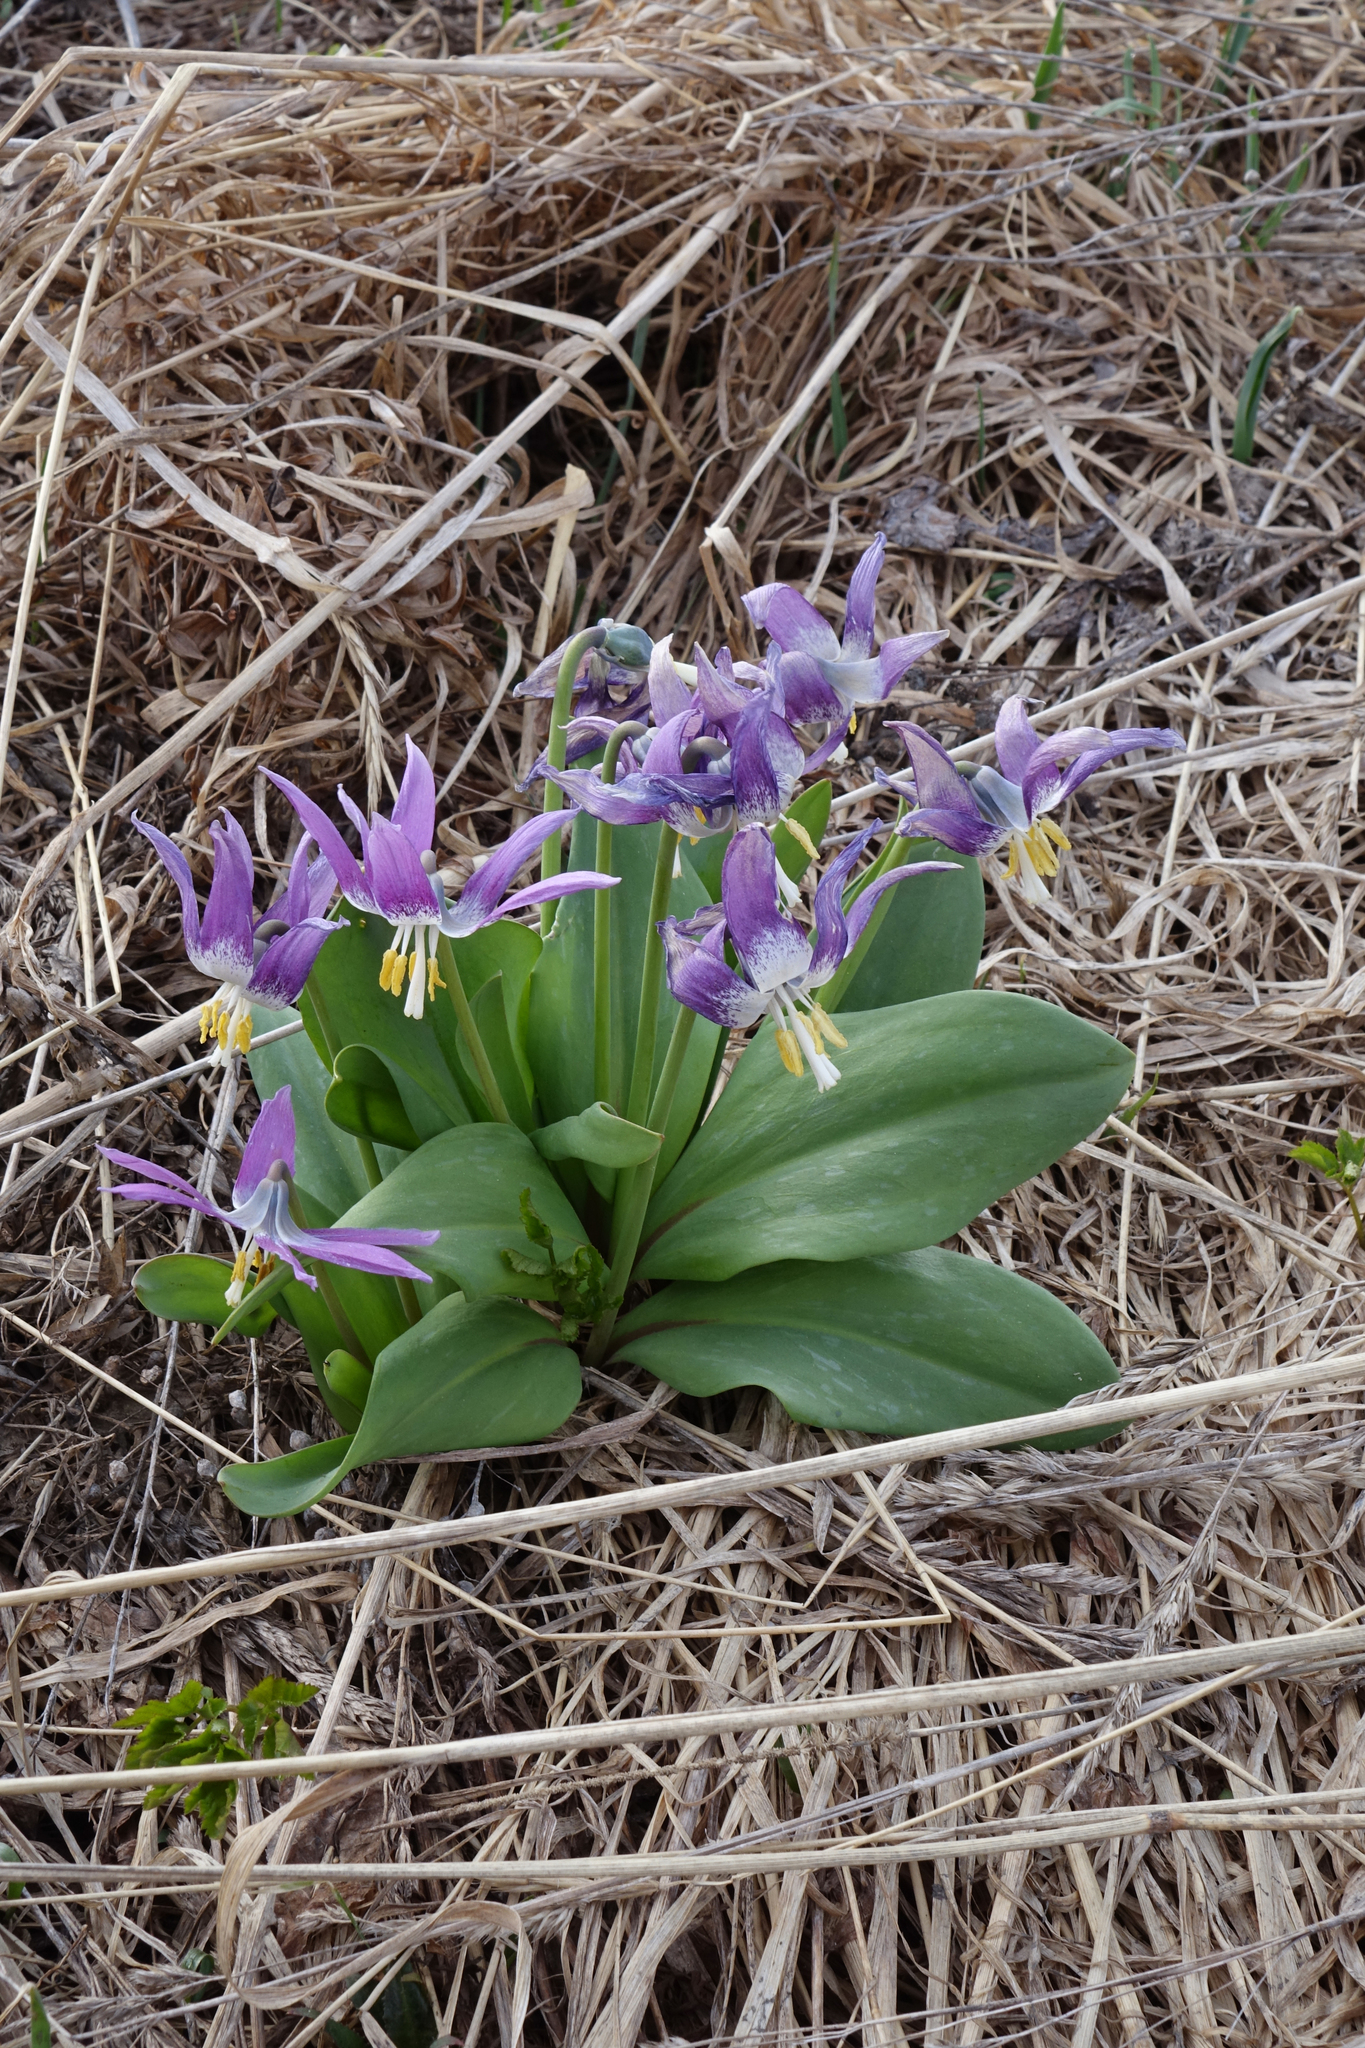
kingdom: Plantae
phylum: Tracheophyta
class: Liliopsida
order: Liliales
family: Liliaceae
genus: Erythronium
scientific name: Erythronium sibiricum
